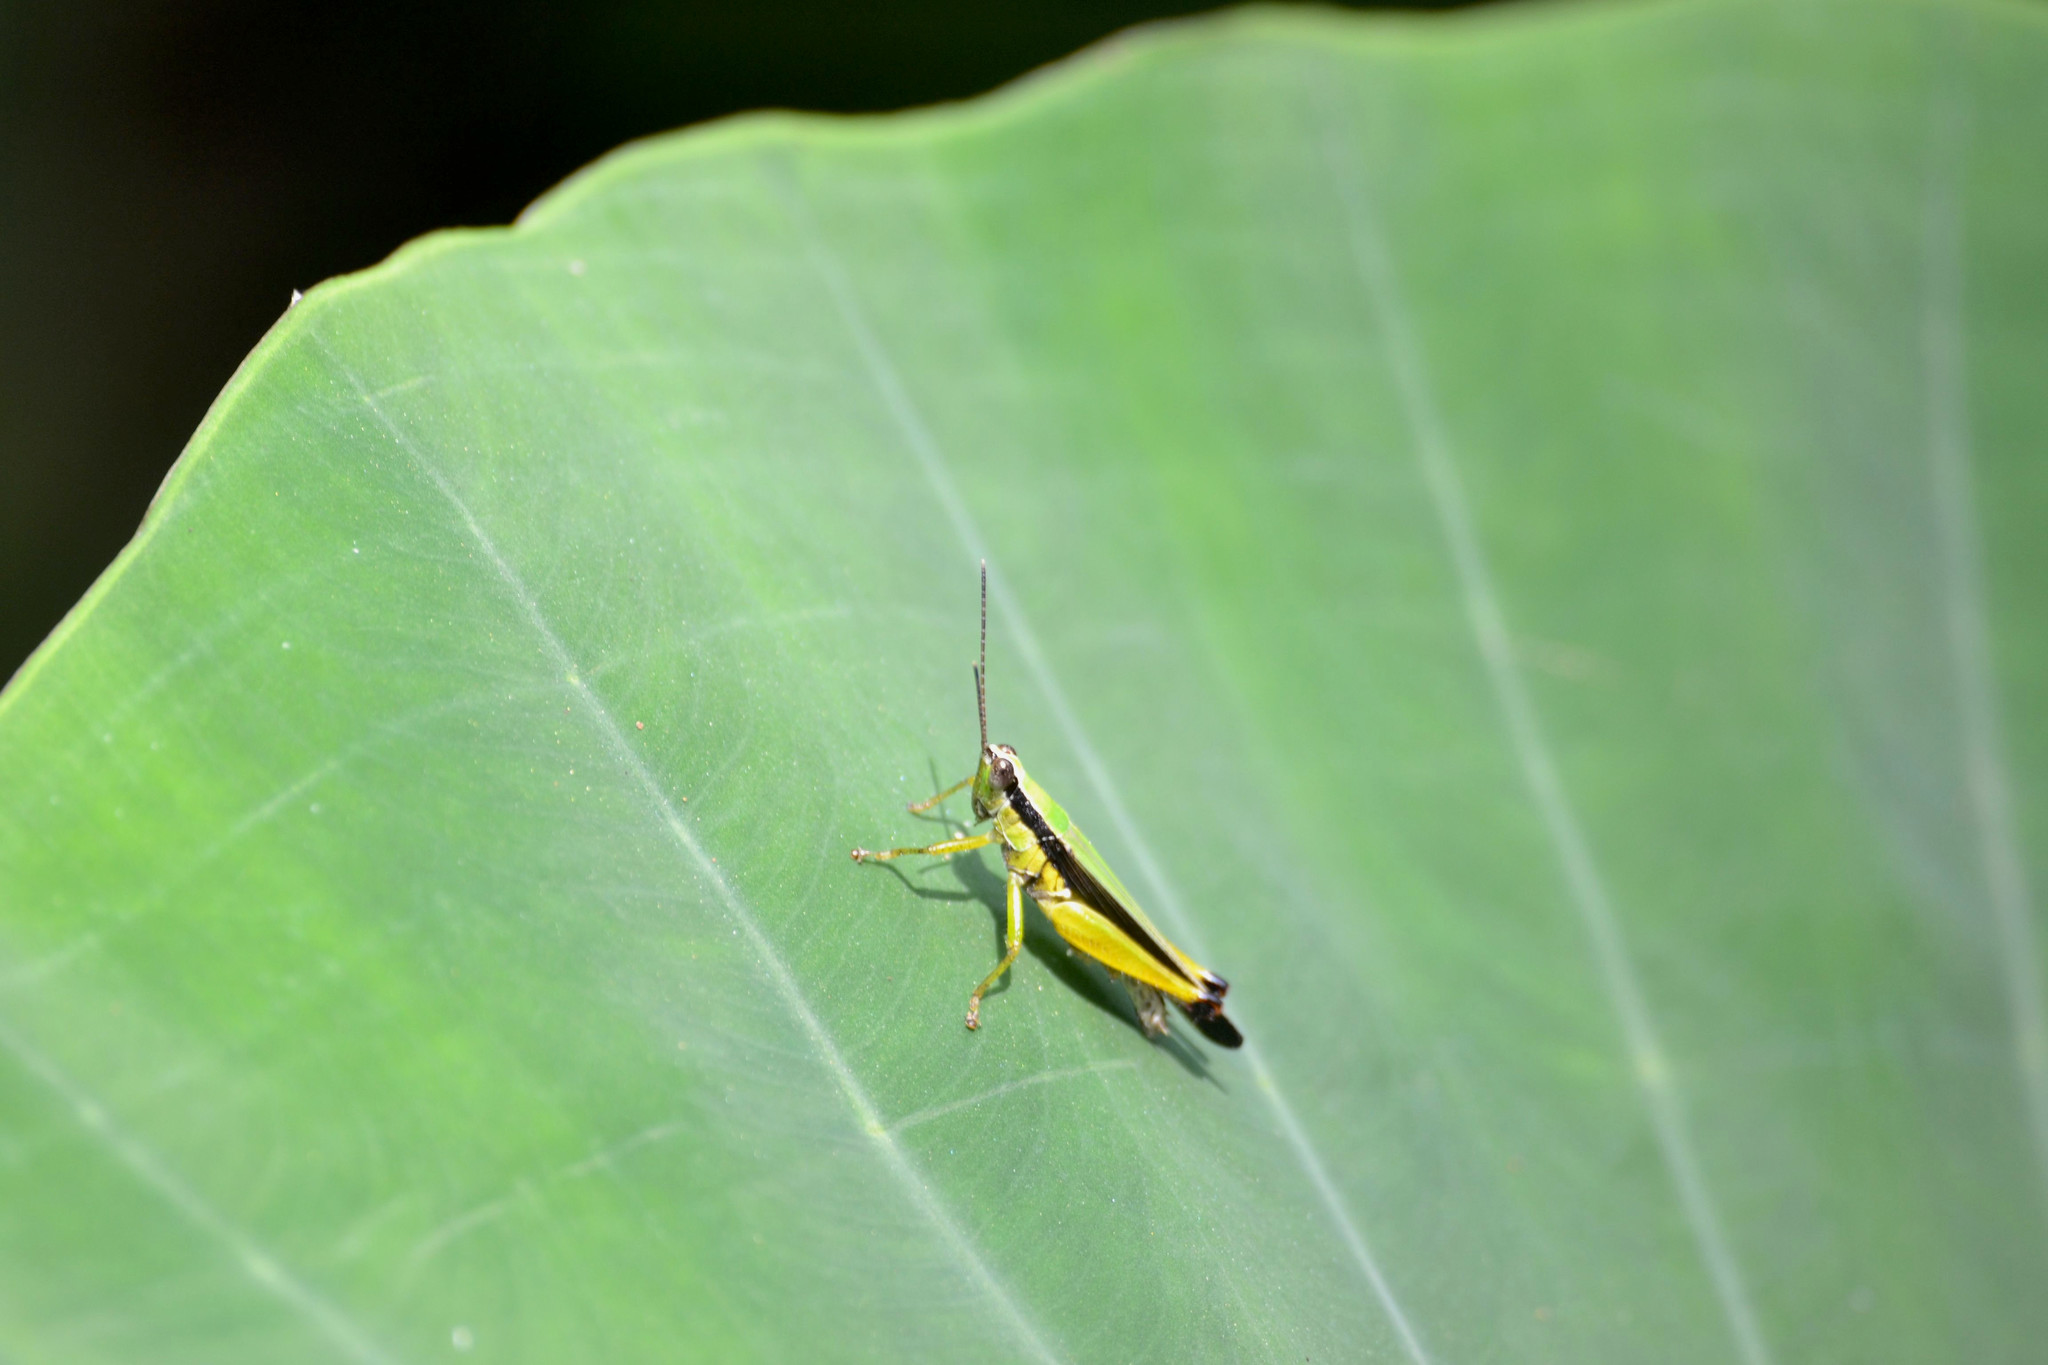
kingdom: Animalia
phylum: Arthropoda
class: Insecta
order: Orthoptera
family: Acrididae
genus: Gesonula
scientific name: Gesonula mundata
